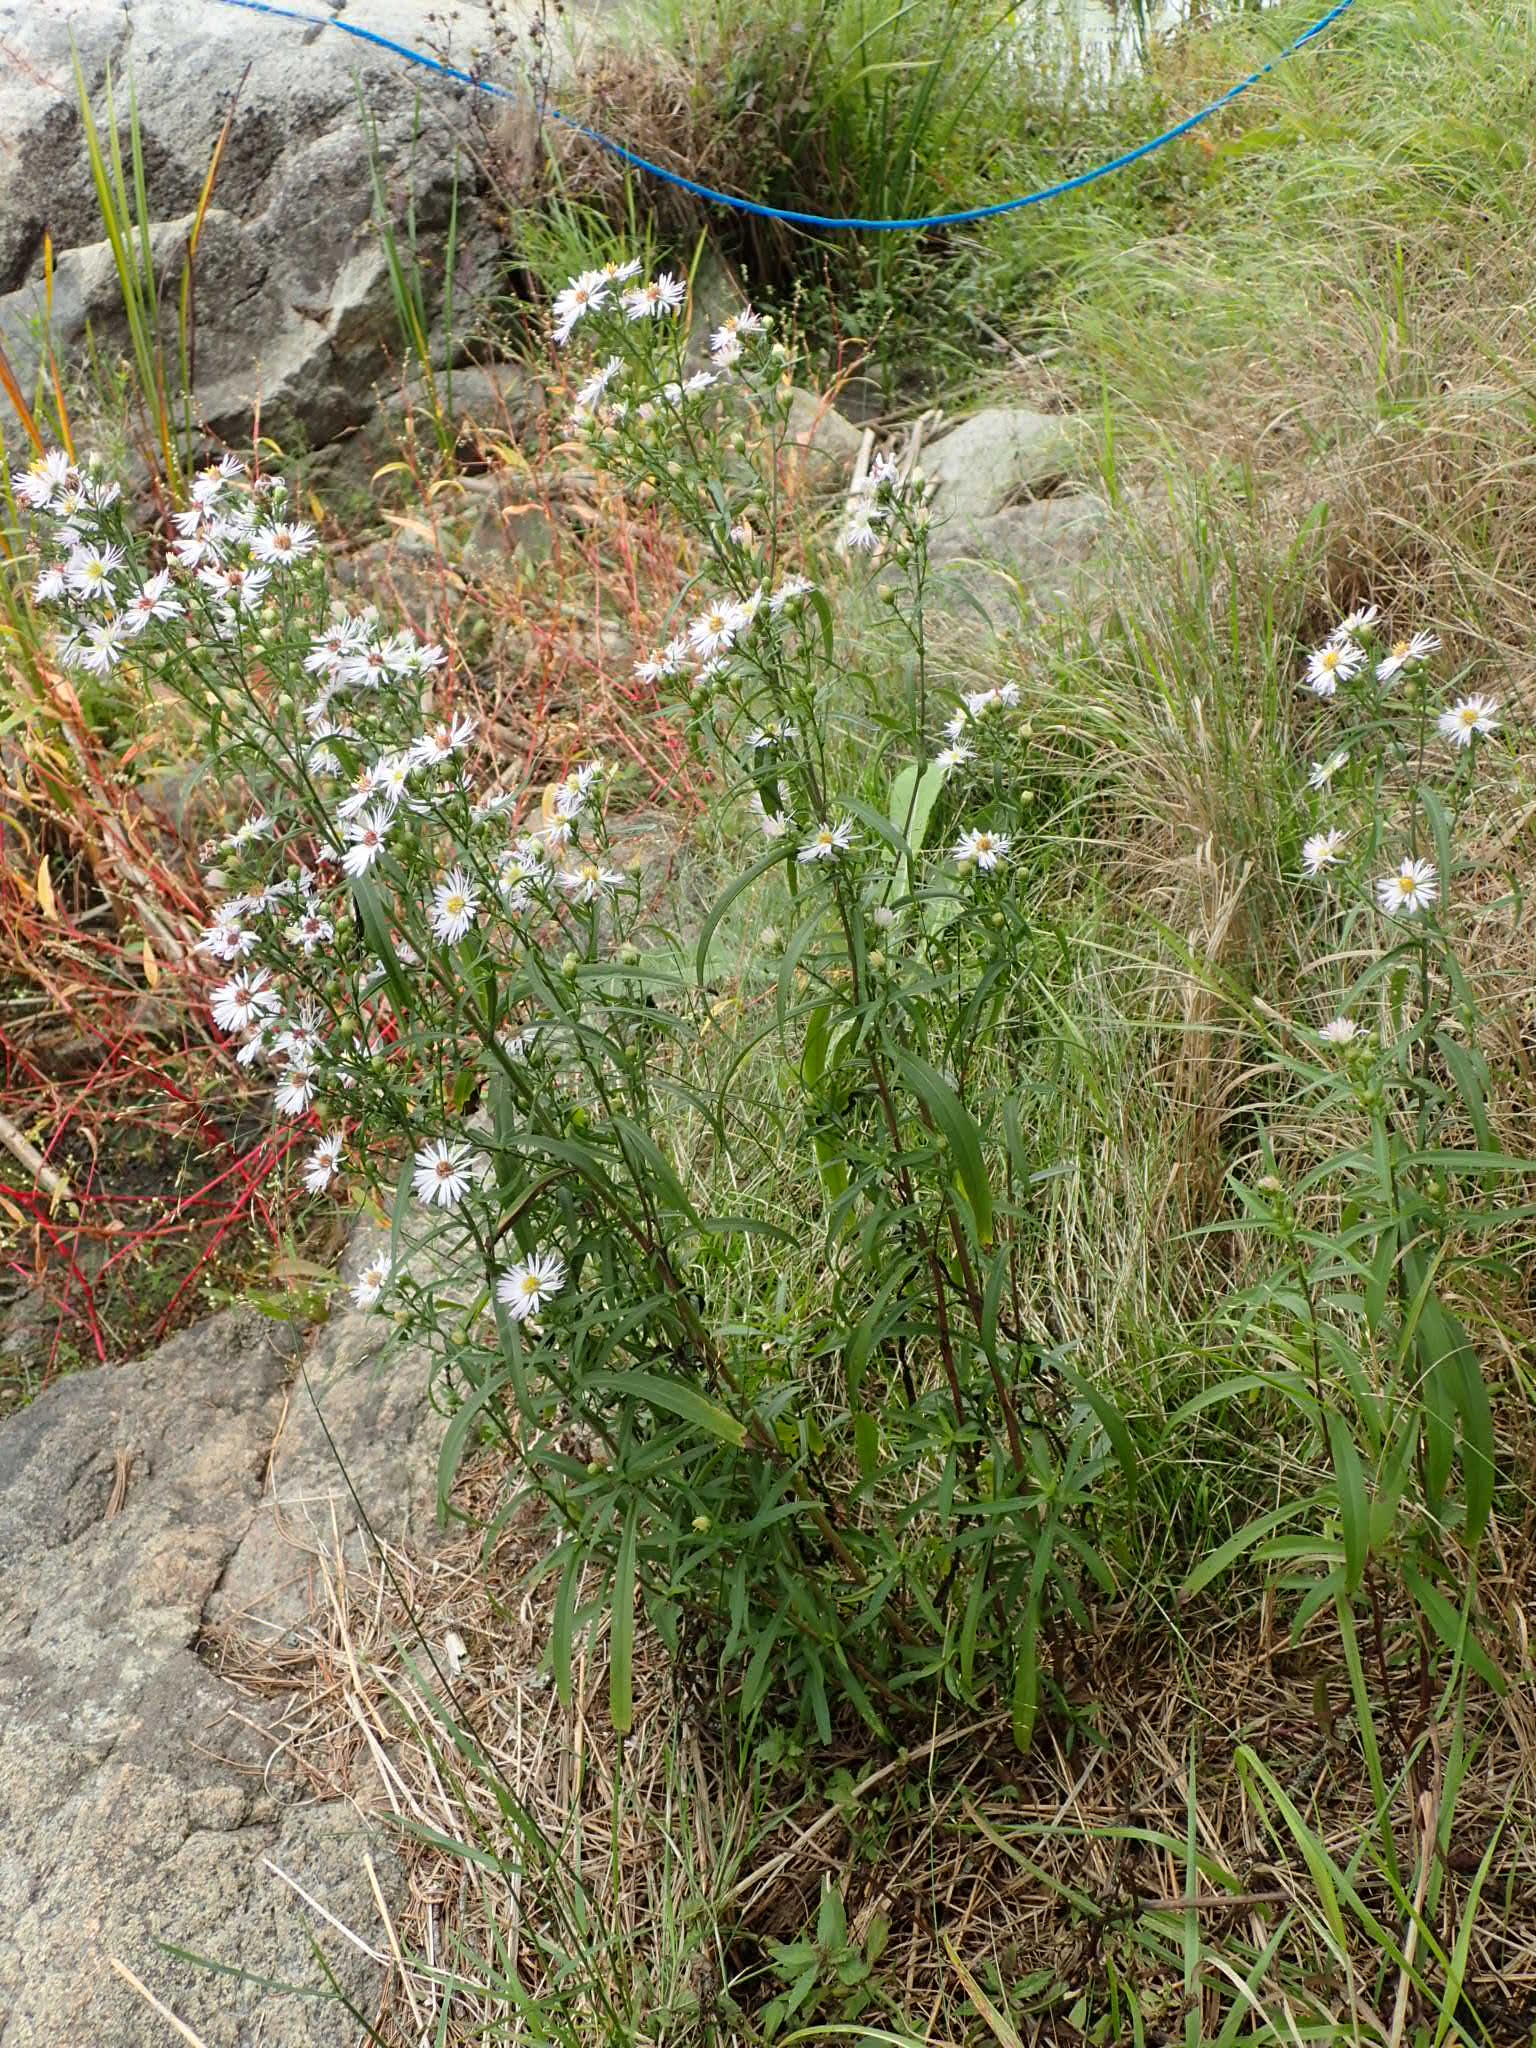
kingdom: Plantae
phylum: Tracheophyta
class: Magnoliopsida
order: Asterales
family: Asteraceae
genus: Symphyotrichum
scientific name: Symphyotrichum lanceolatum
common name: Panicled aster
